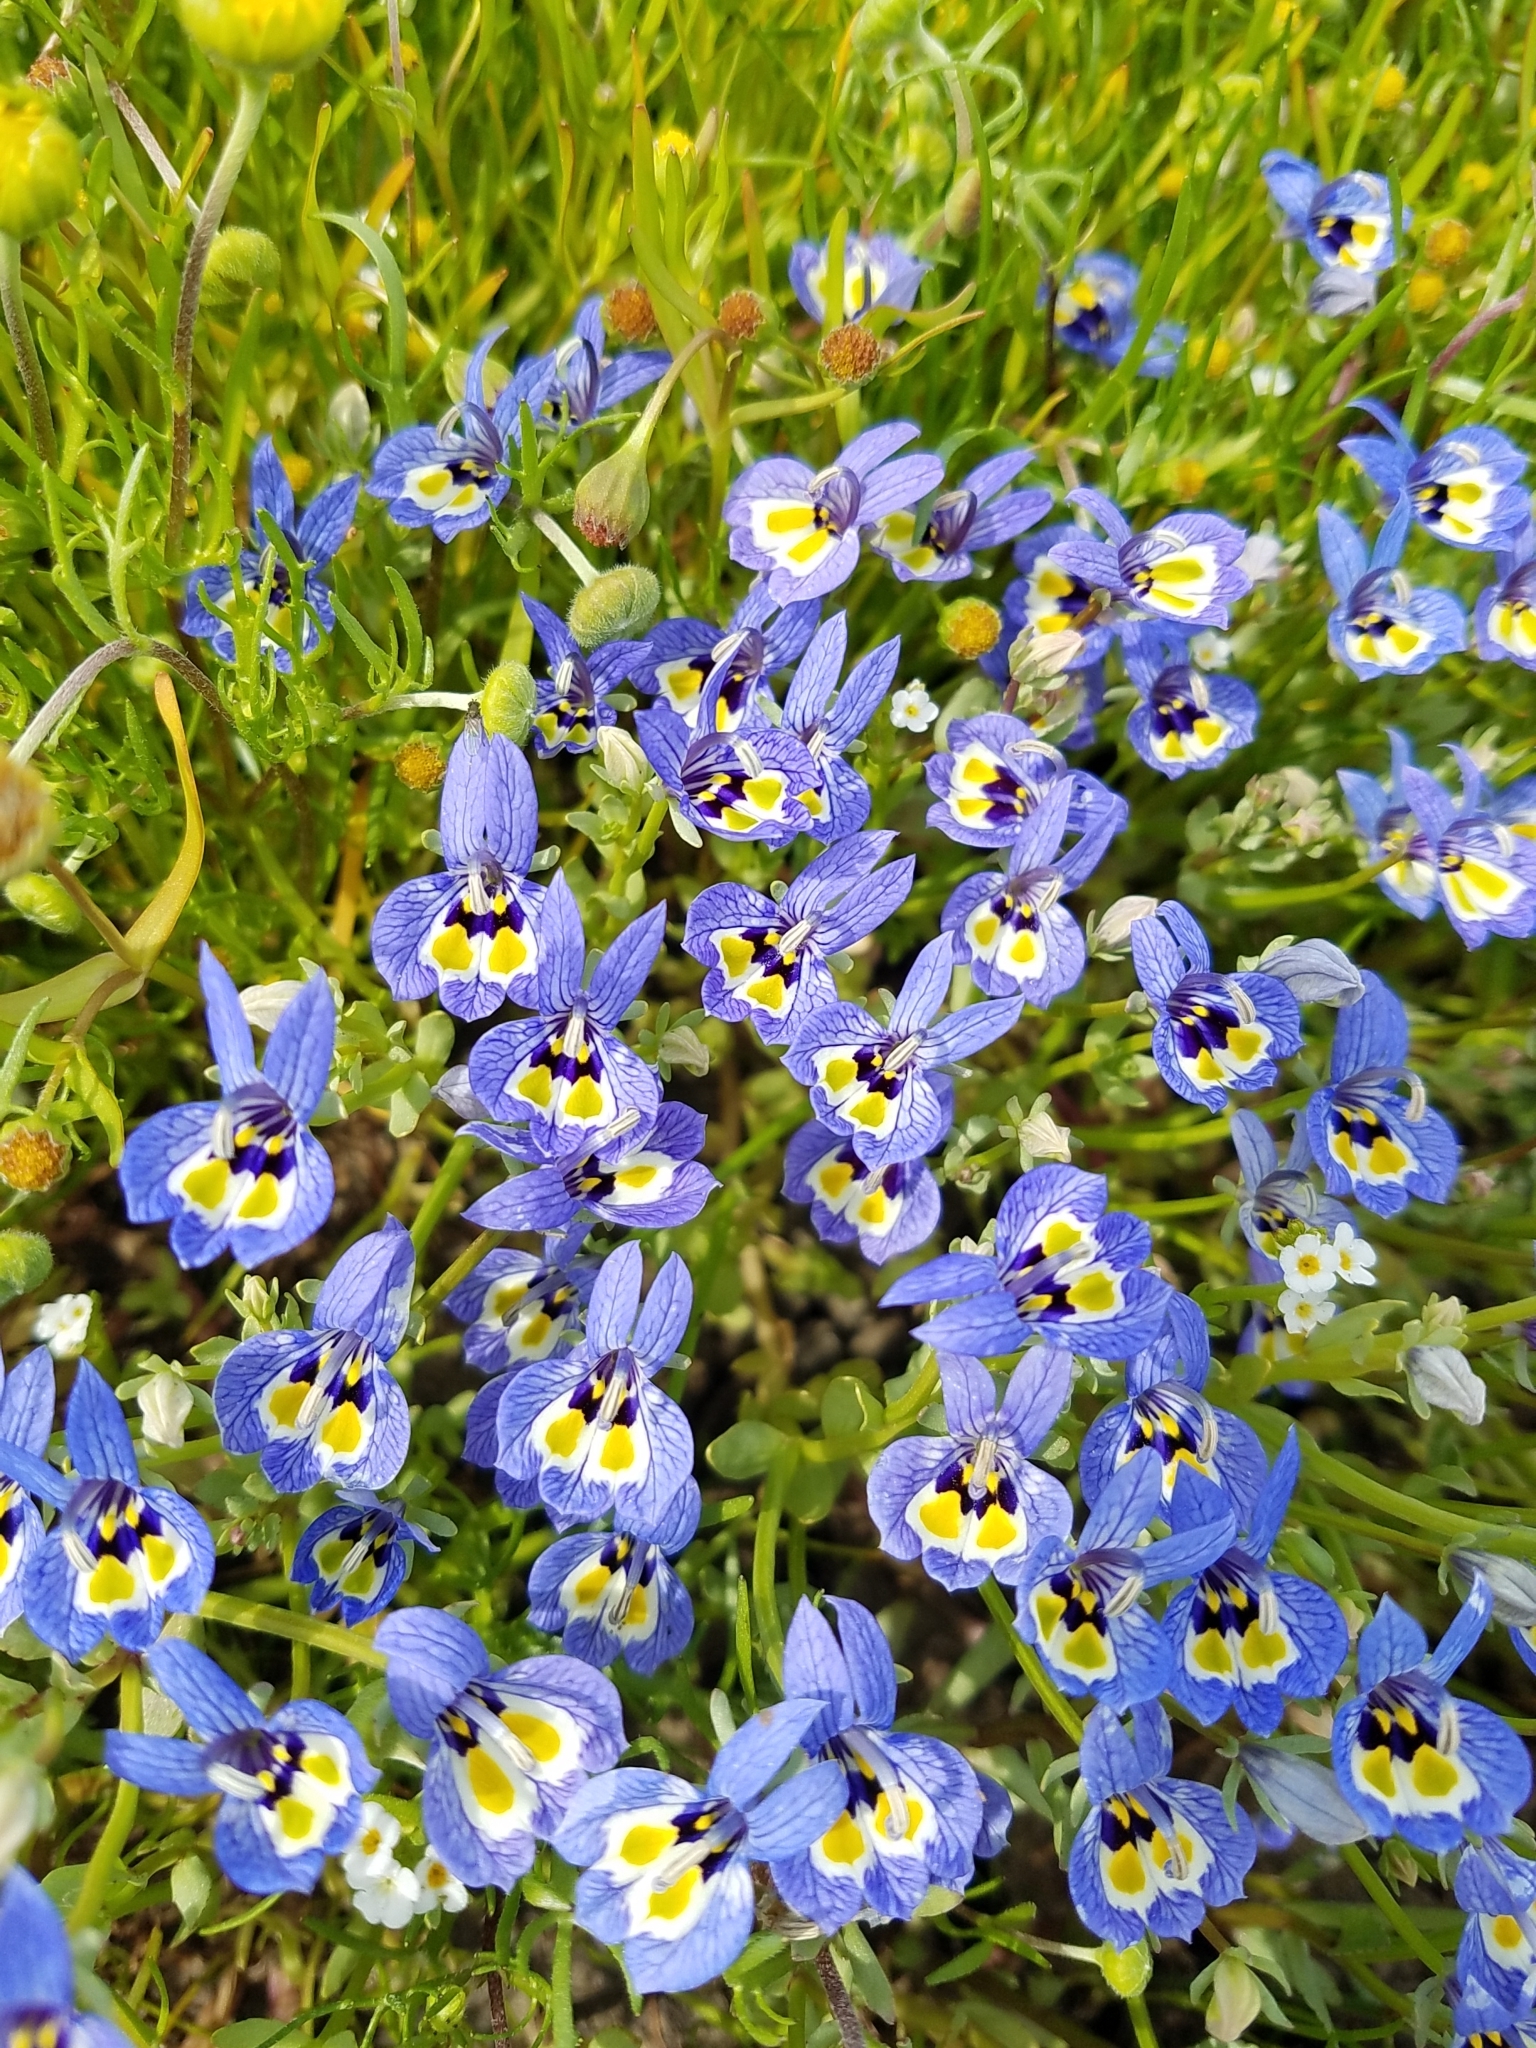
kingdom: Plantae
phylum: Tracheophyta
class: Magnoliopsida
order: Asterales
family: Campanulaceae
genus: Downingia
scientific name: Downingia insignis
